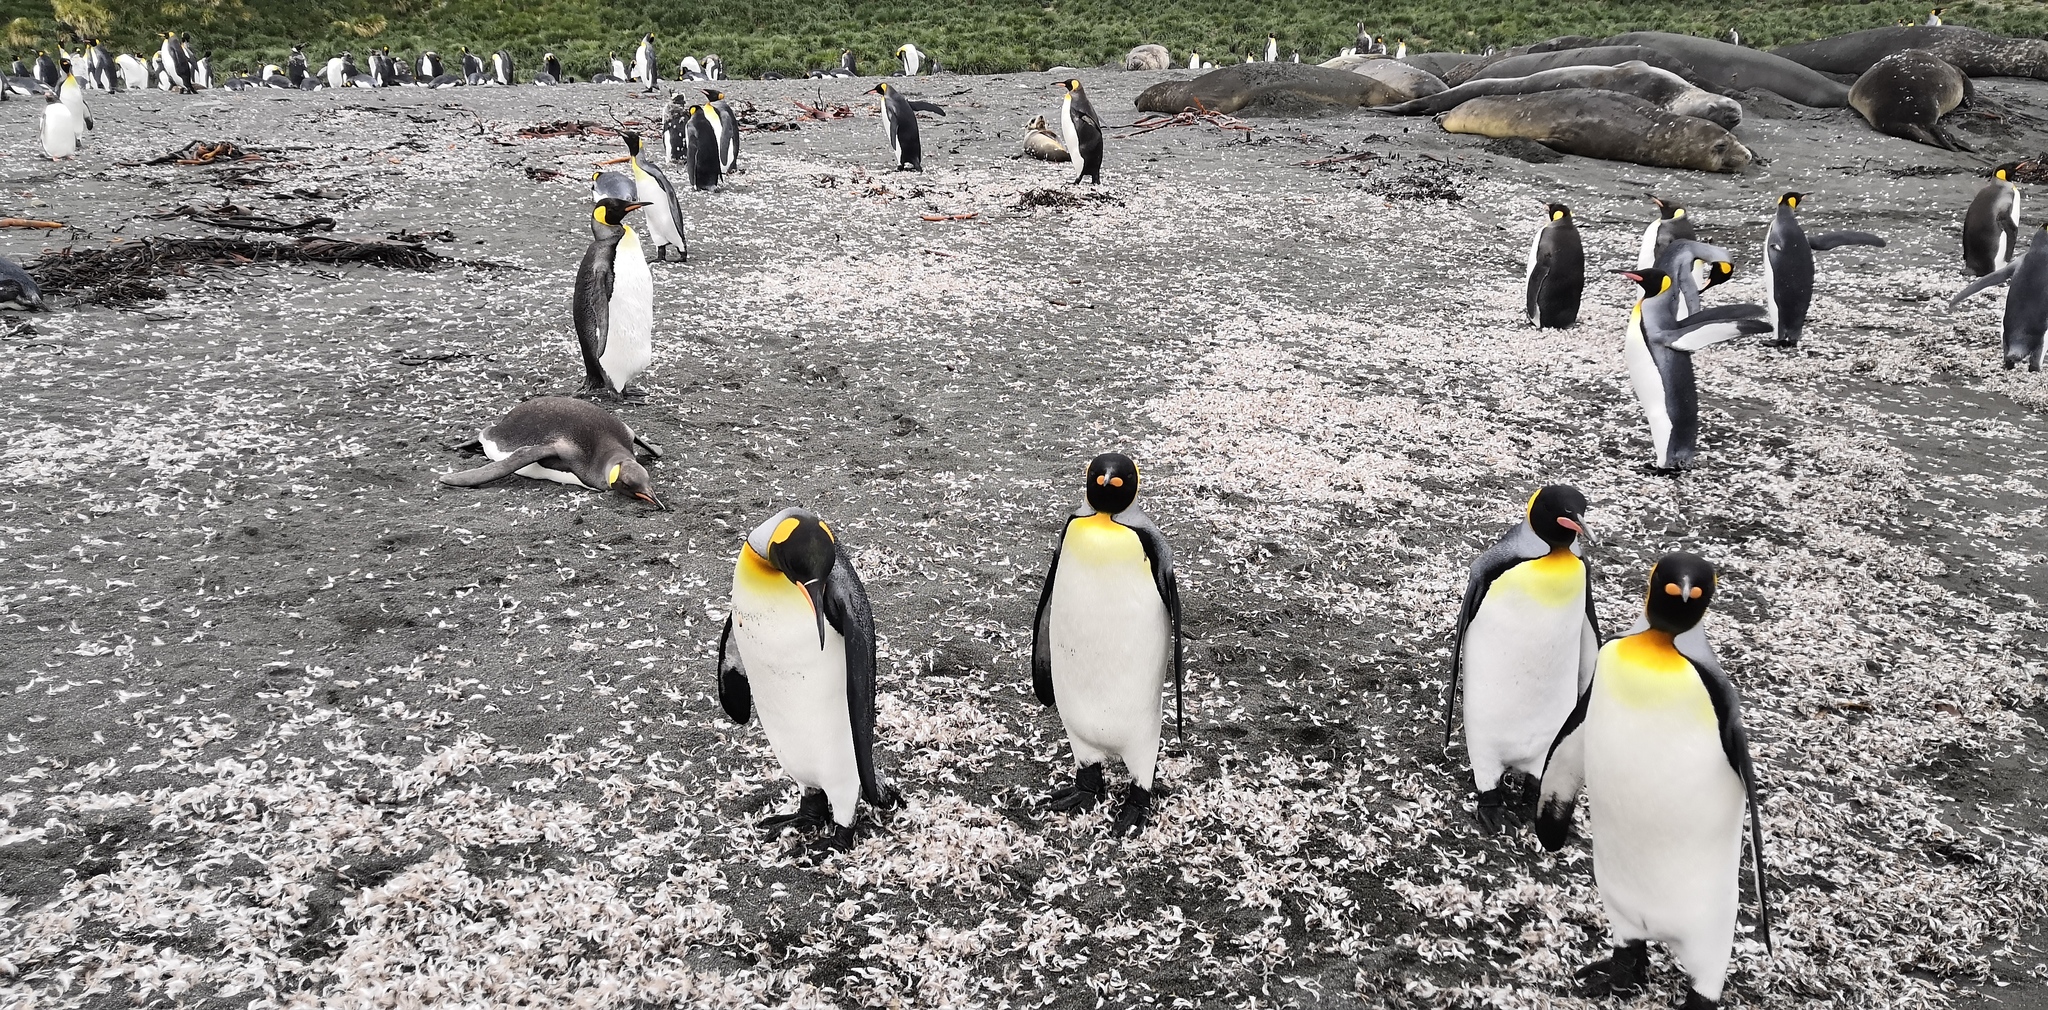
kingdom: Animalia
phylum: Chordata
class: Aves
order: Sphenisciformes
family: Spheniscidae
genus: Aptenodytes
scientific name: Aptenodytes patagonicus
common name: King penguin
